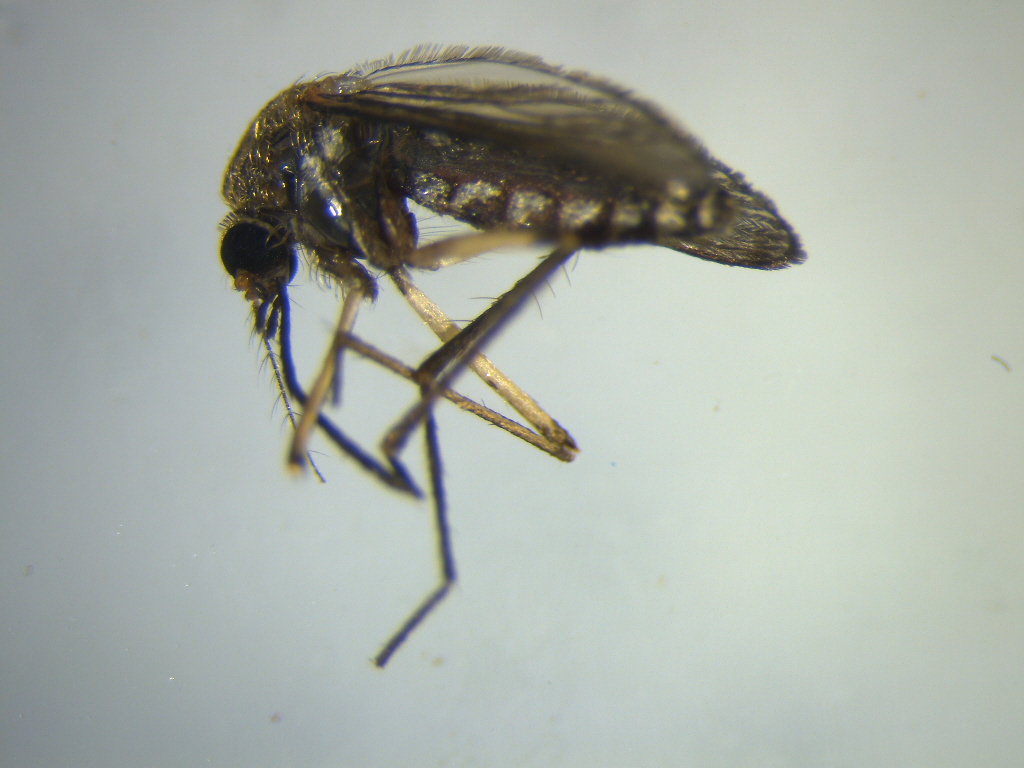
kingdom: Animalia
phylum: Arthropoda
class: Insecta
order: Diptera
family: Culicidae
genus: Coquillettidia
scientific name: Coquillettidia iracunda
